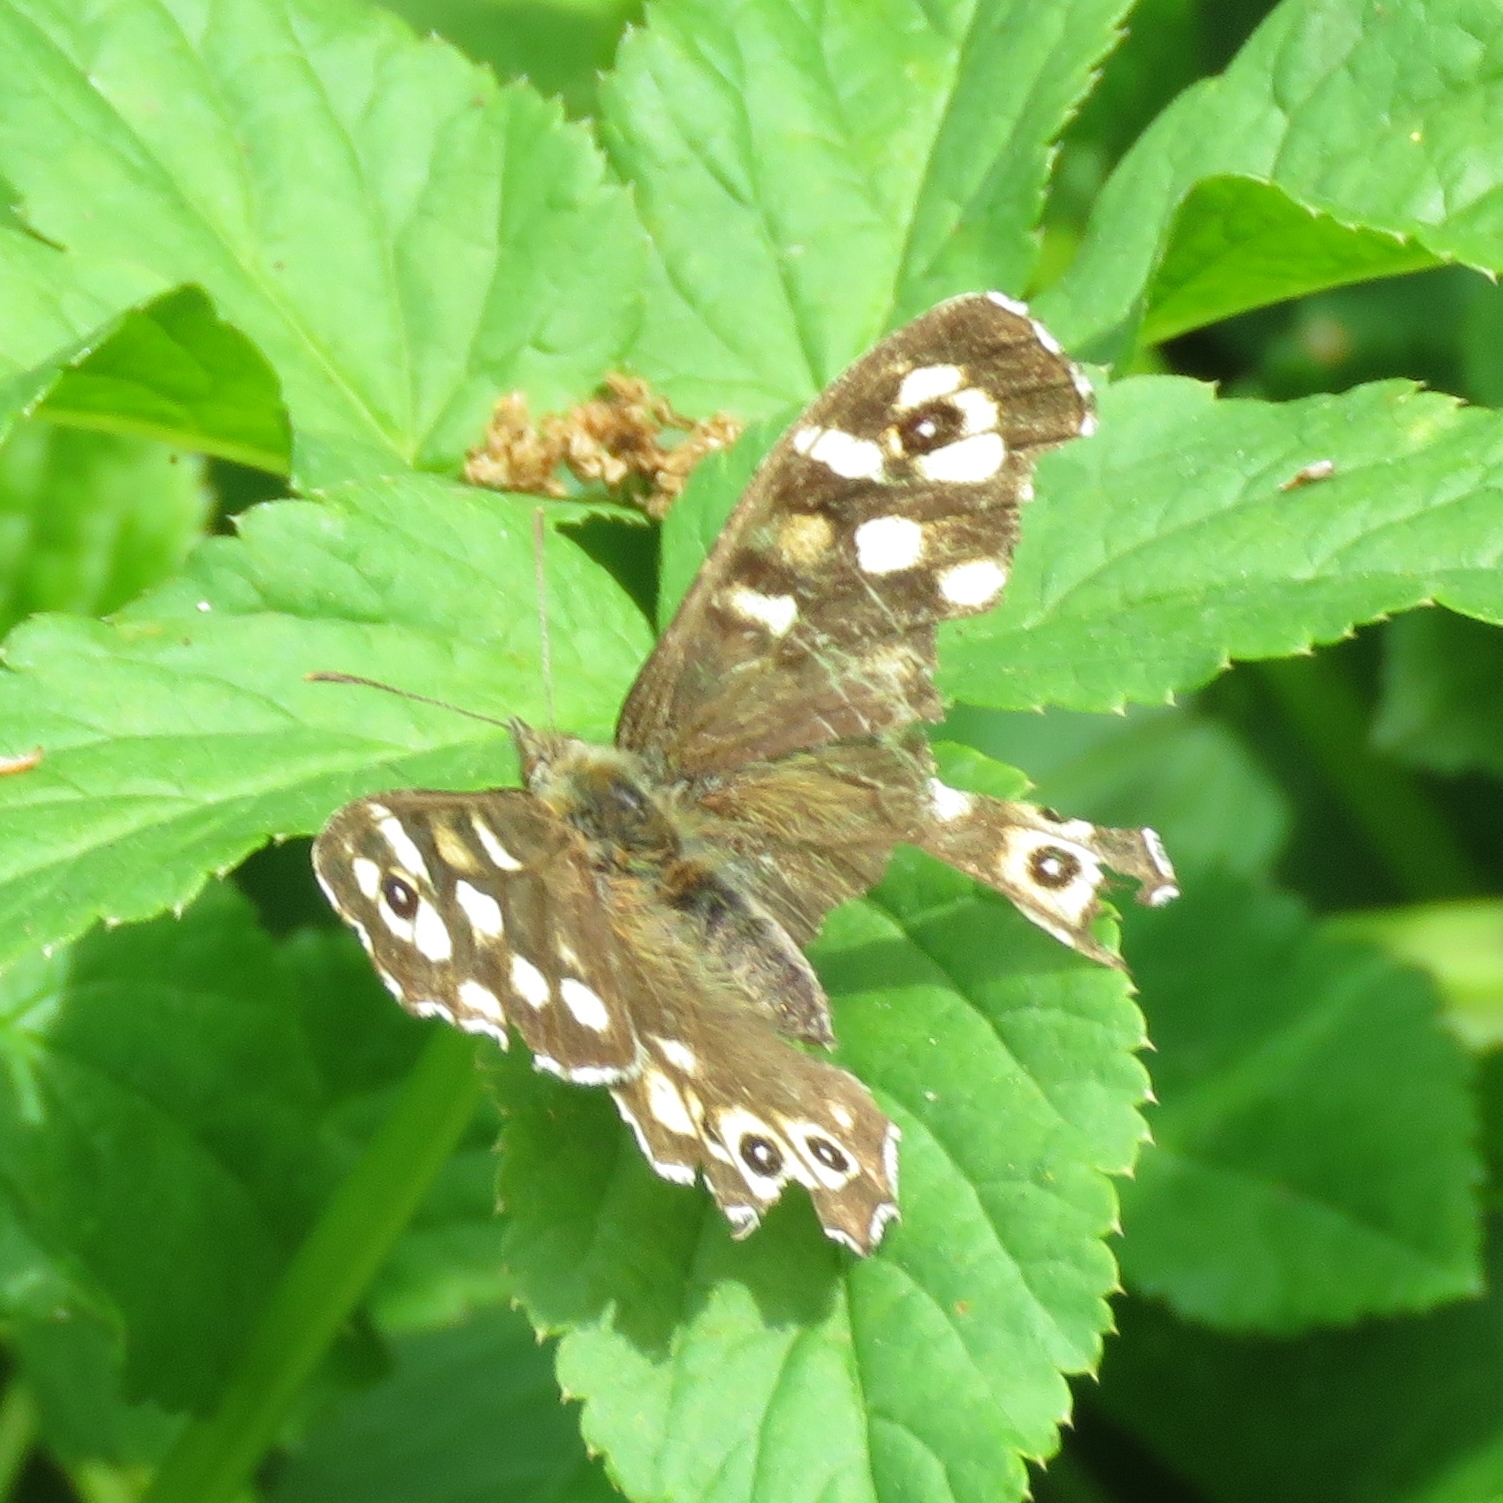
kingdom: Animalia
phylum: Arthropoda
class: Insecta
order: Lepidoptera
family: Nymphalidae
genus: Pararge
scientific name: Pararge aegeria
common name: Speckled wood
